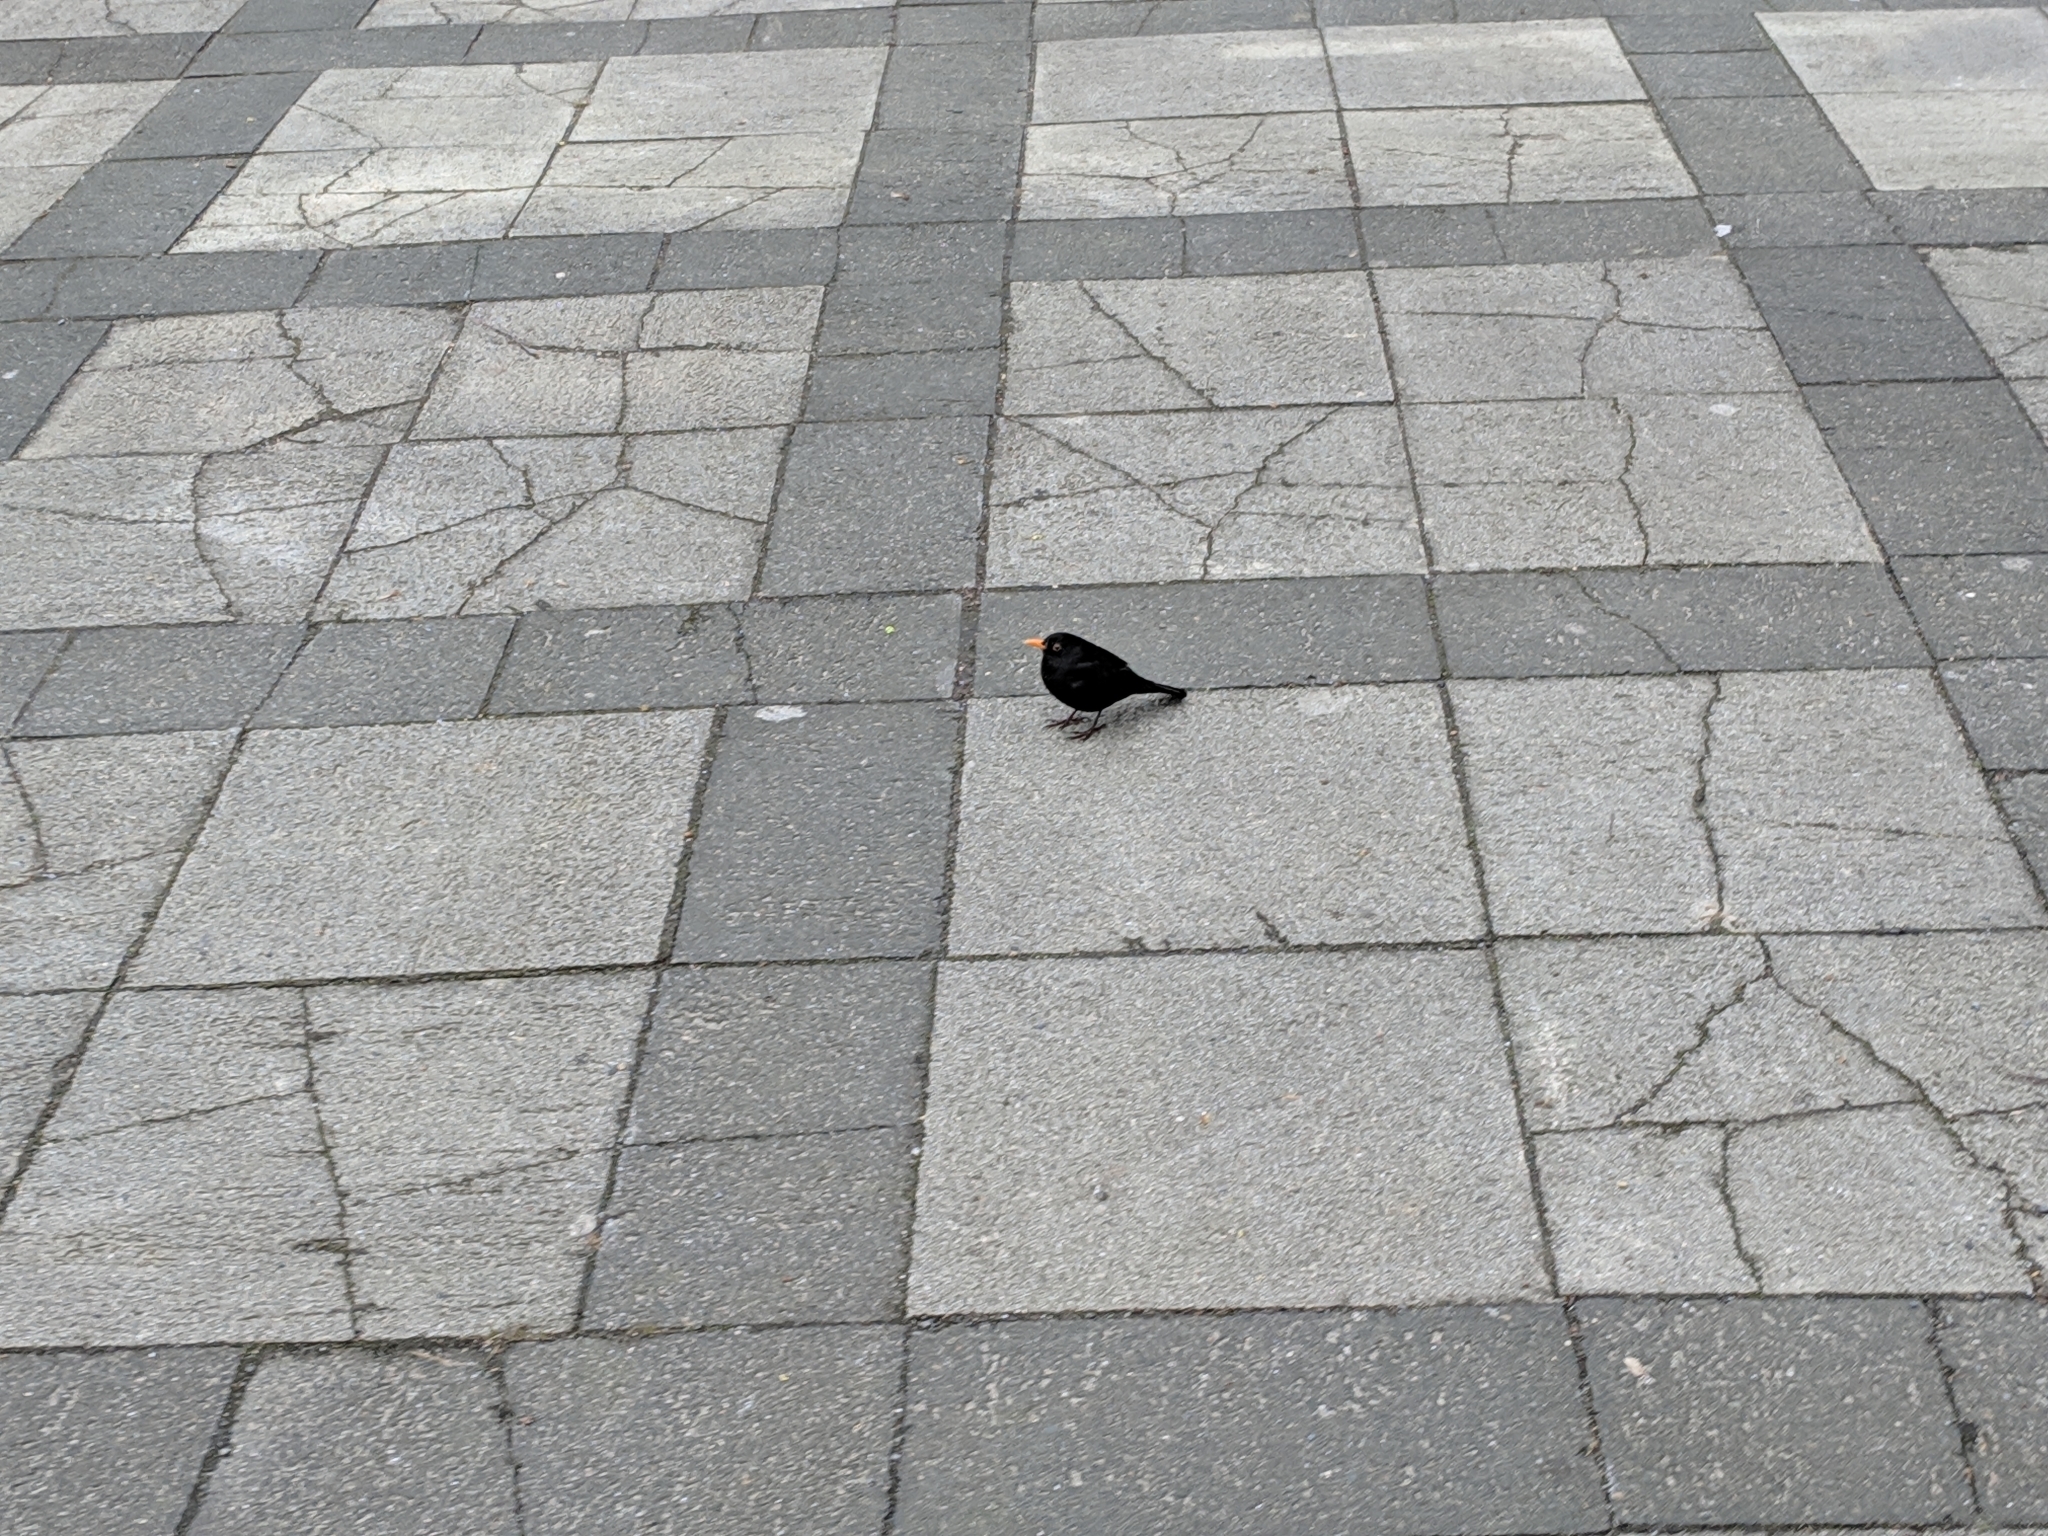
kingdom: Animalia
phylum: Chordata
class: Aves
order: Passeriformes
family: Turdidae
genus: Turdus
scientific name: Turdus merula
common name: Common blackbird
